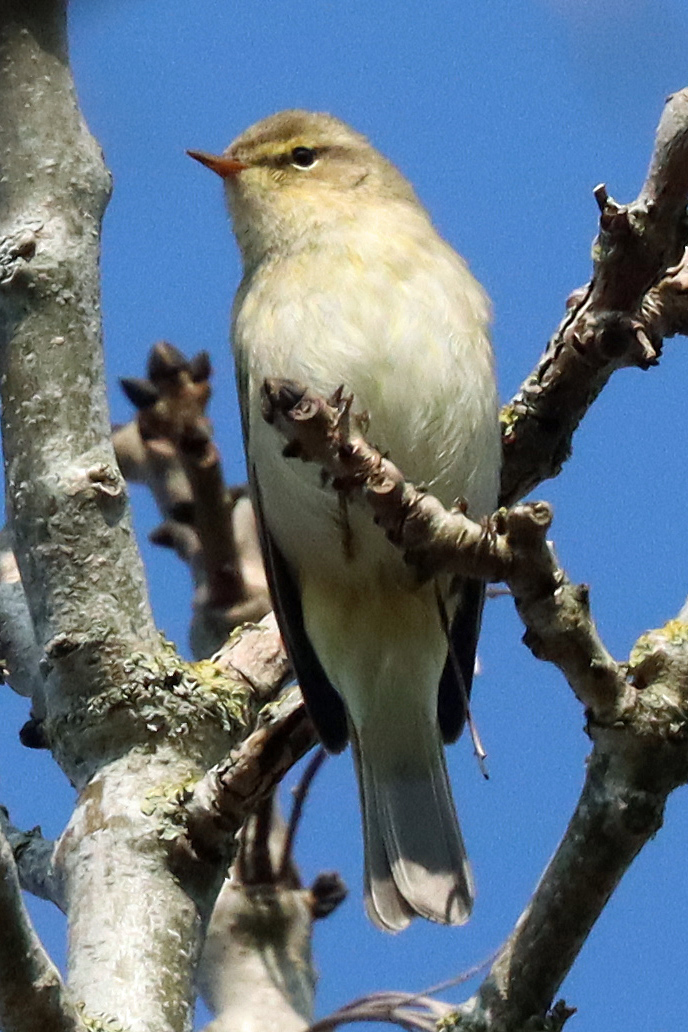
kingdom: Animalia
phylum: Chordata
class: Aves
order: Passeriformes
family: Phylloscopidae
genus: Phylloscopus
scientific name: Phylloscopus collybita
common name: Common chiffchaff
